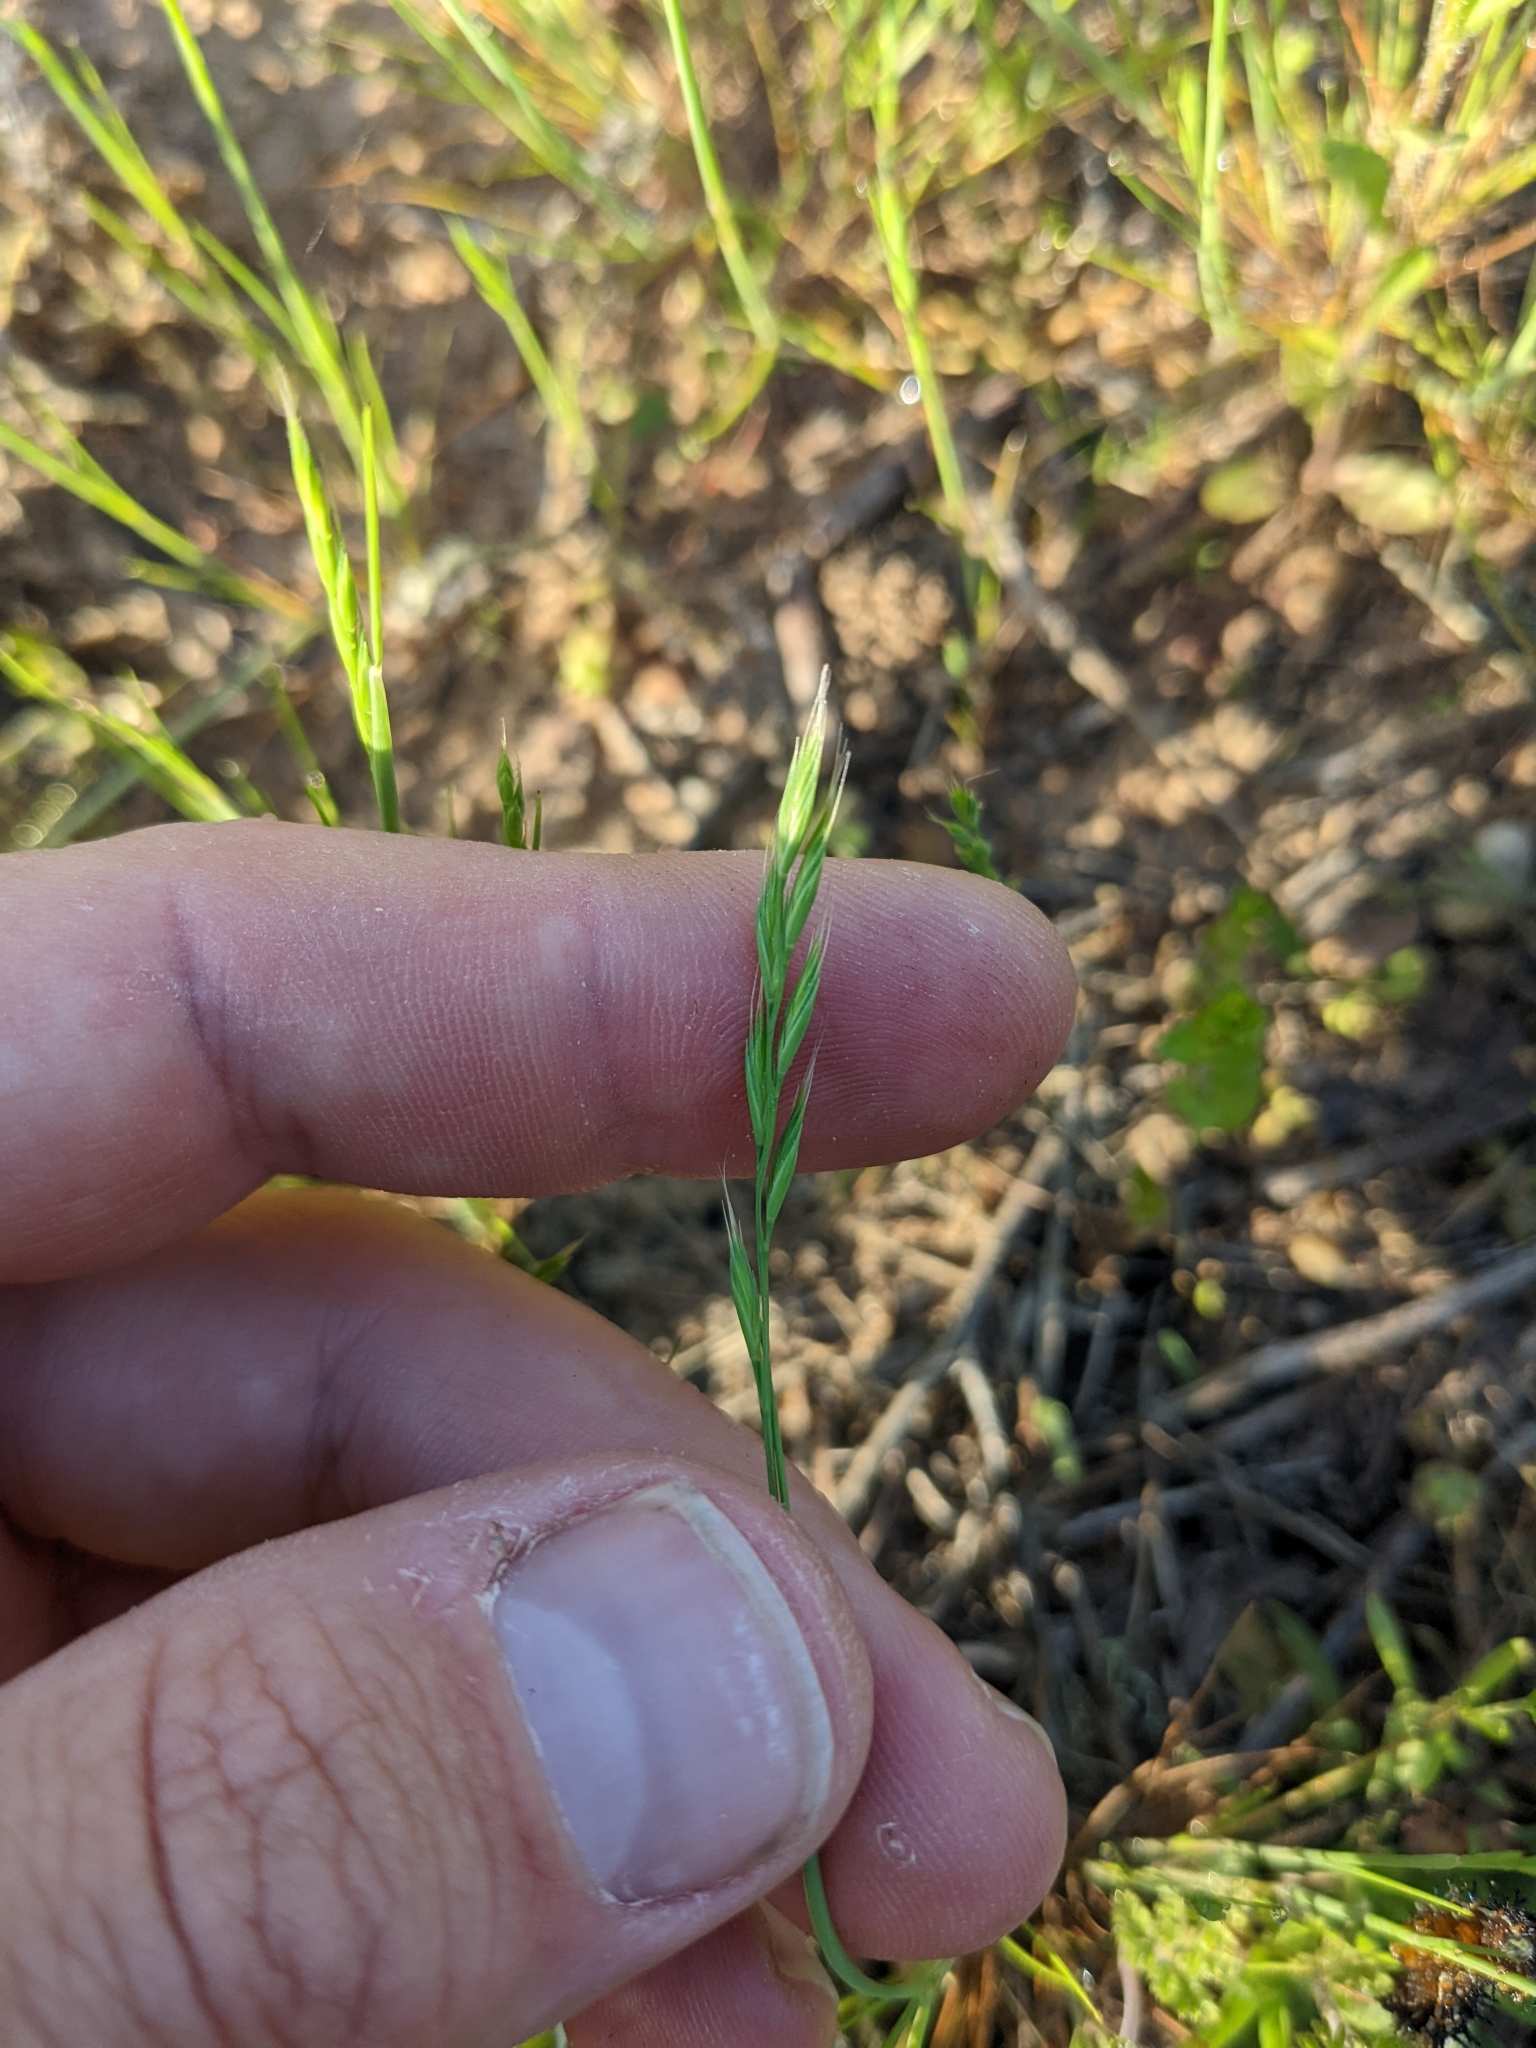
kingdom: Plantae
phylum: Tracheophyta
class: Liliopsida
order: Poales
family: Poaceae
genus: Festuca
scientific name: Festuca octoflora
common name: Sixweeks grass
